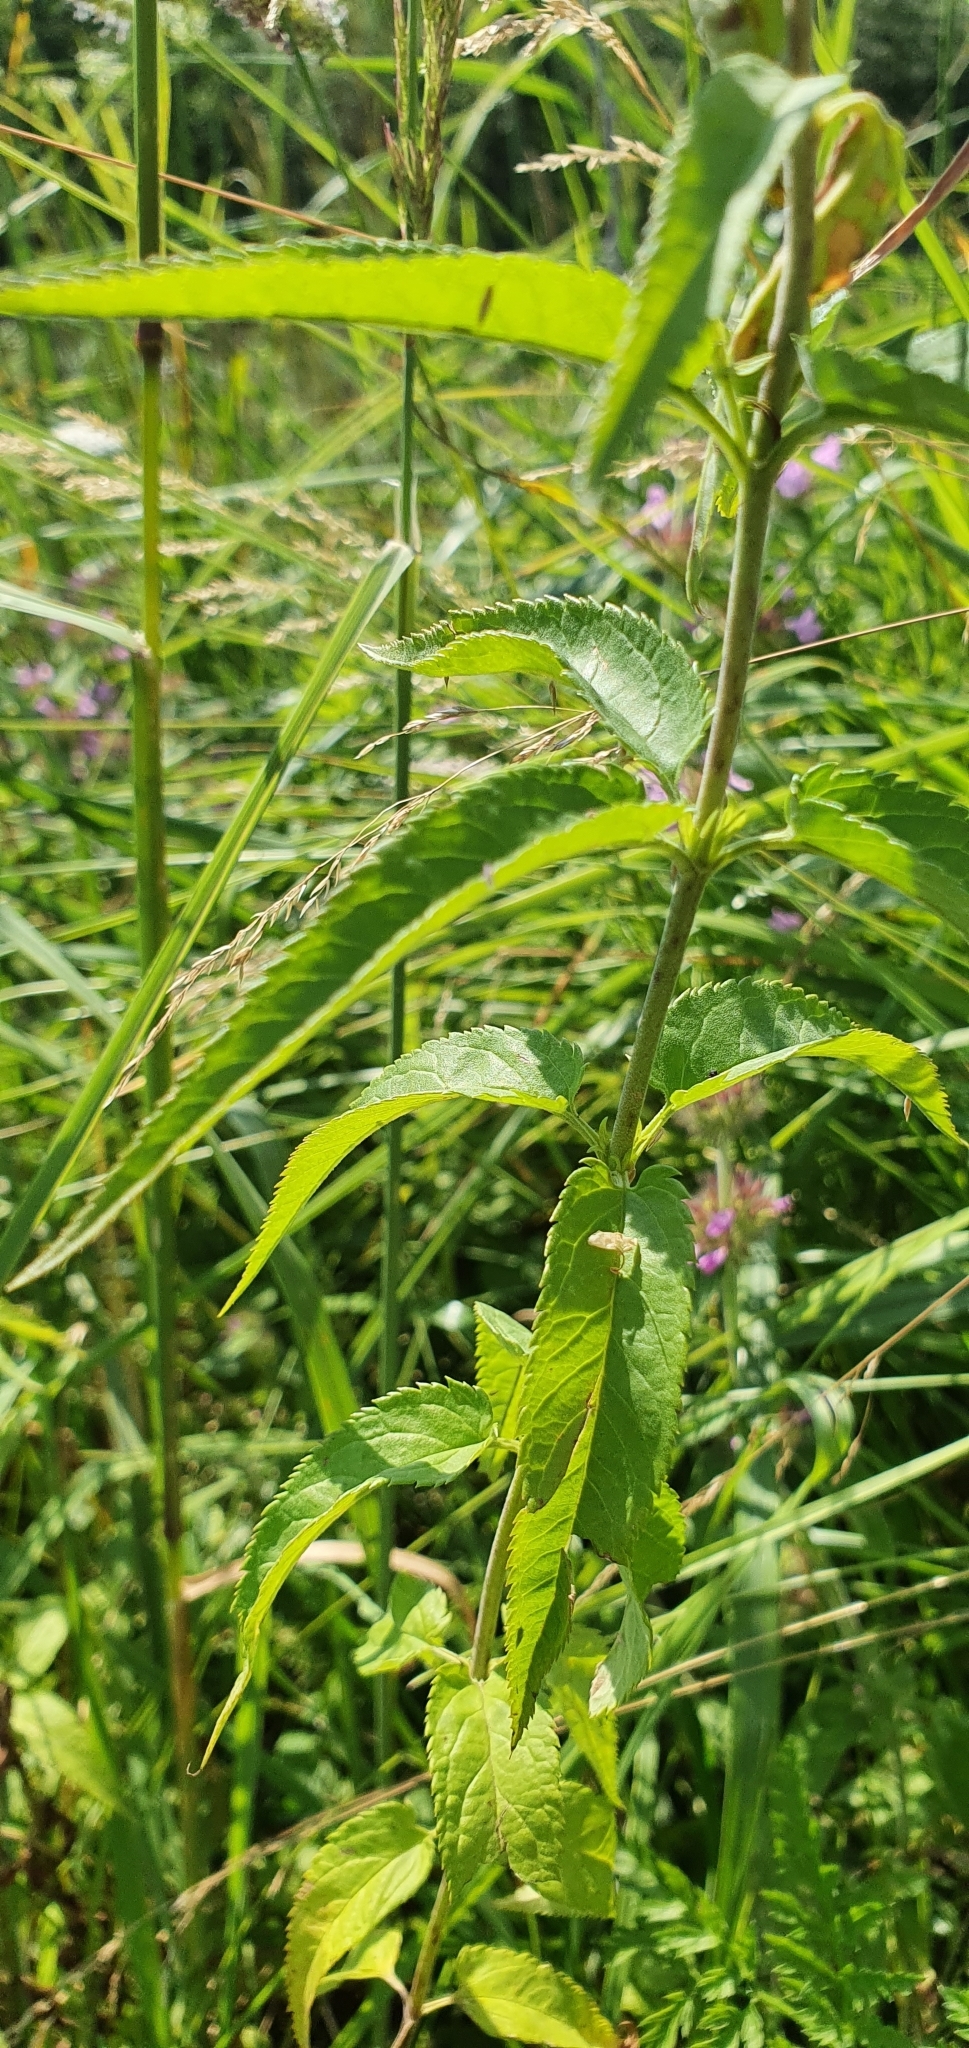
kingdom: Plantae
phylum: Tracheophyta
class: Magnoliopsida
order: Lamiales
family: Plantaginaceae
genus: Veronica
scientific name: Veronica longifolia
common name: Garden speedwell
